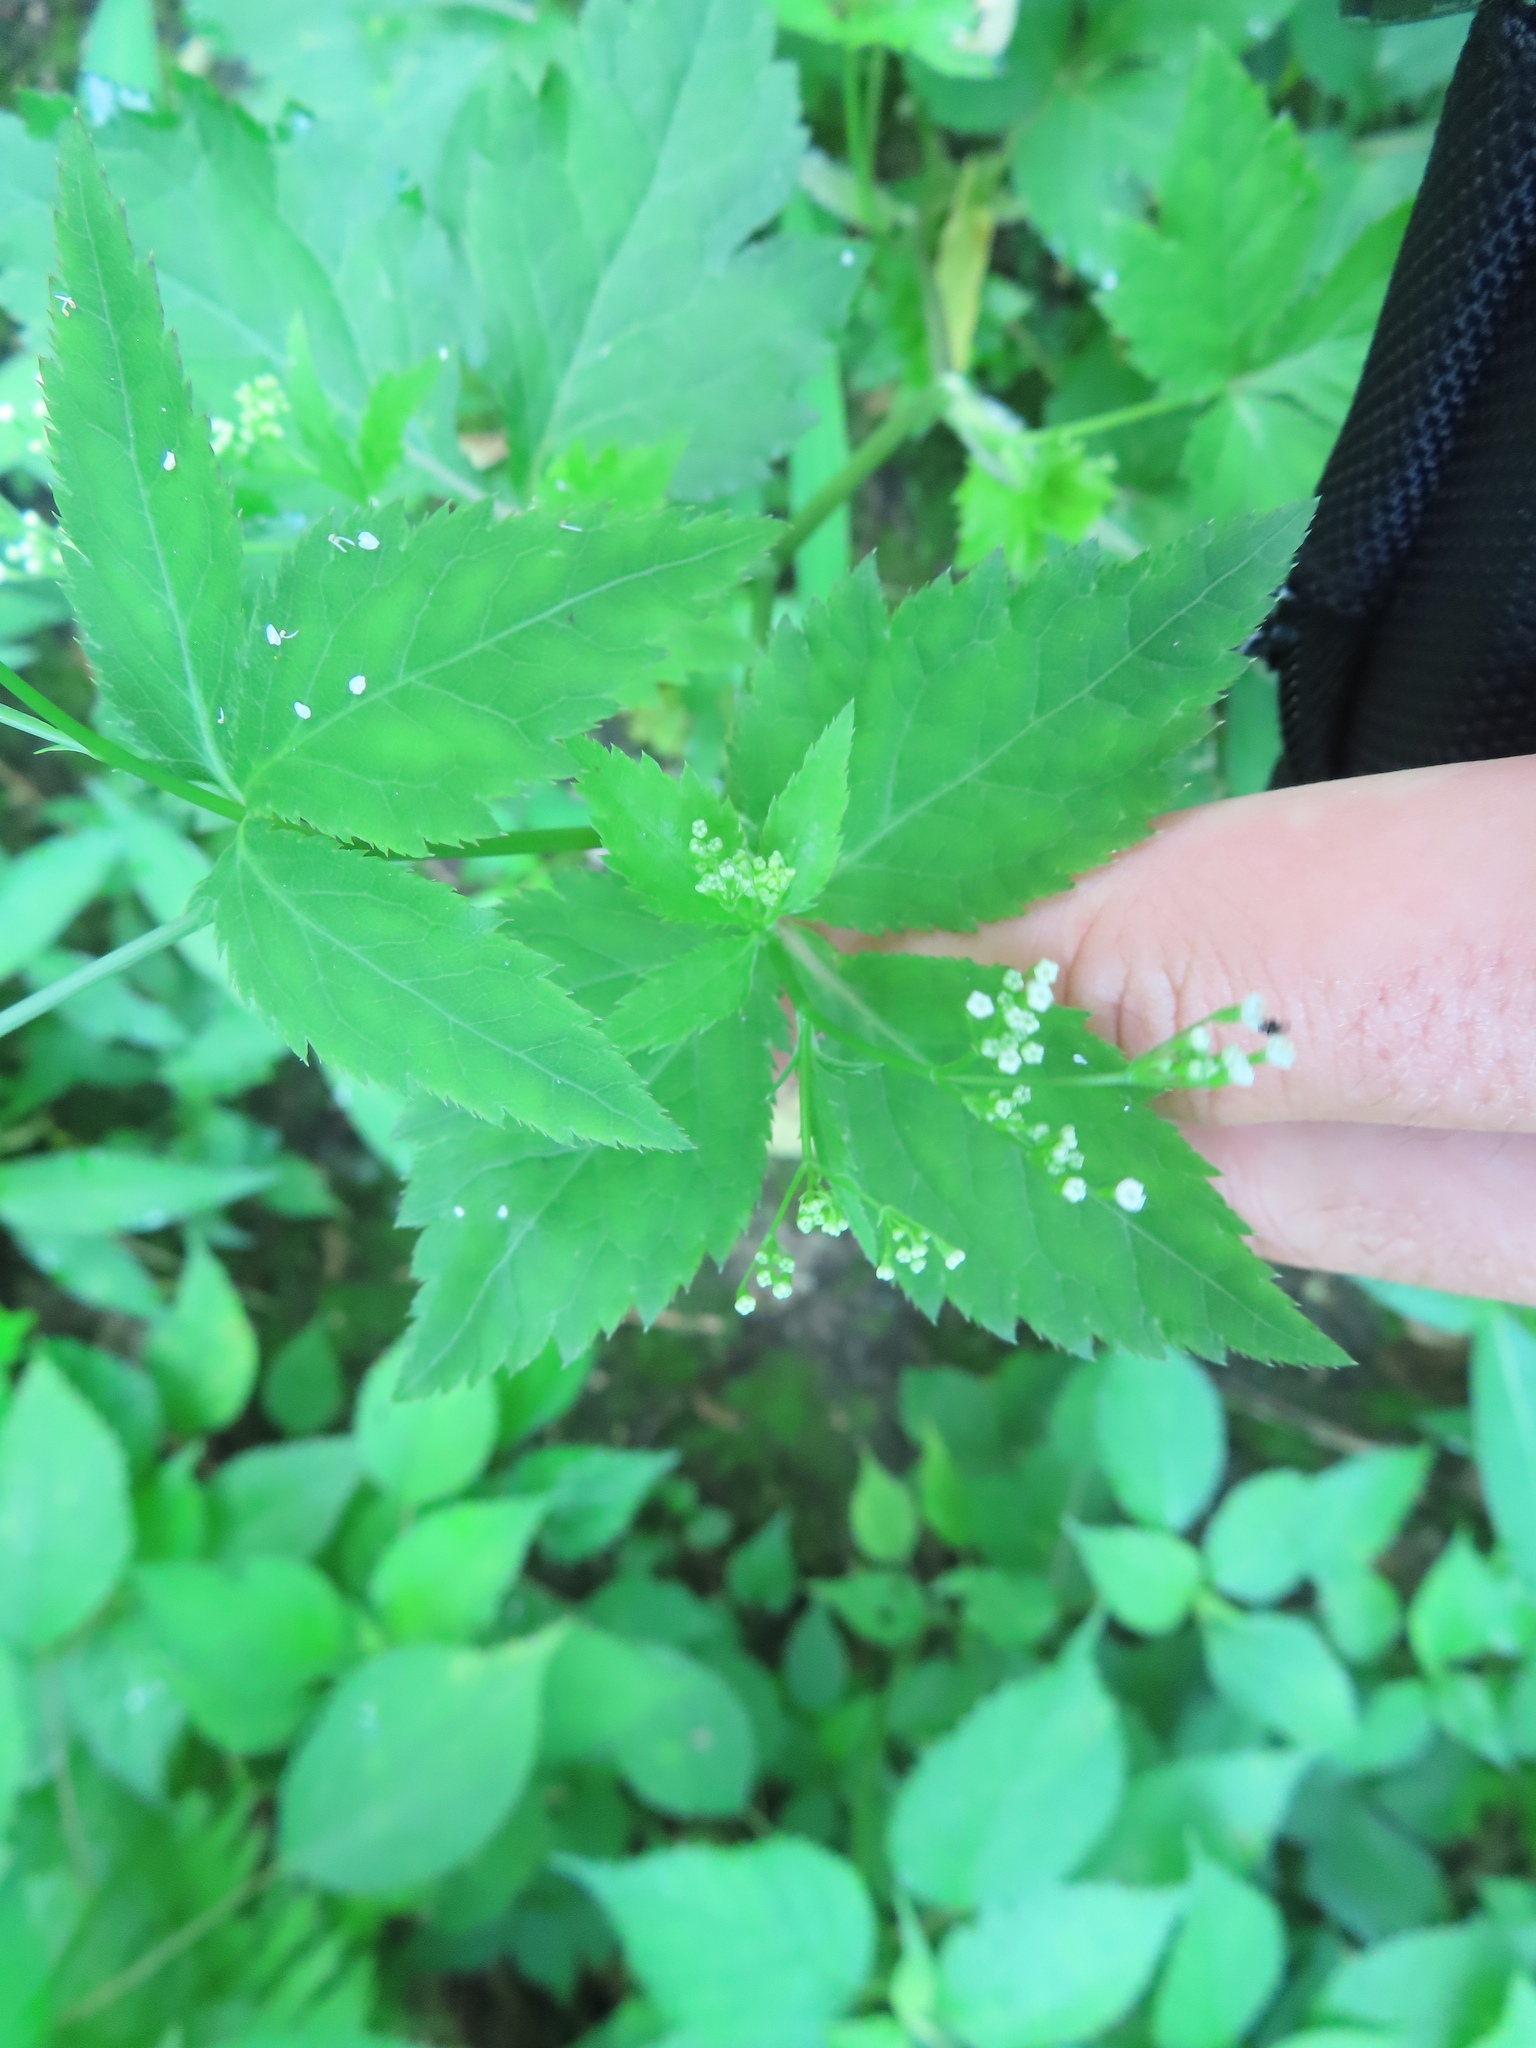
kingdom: Plantae
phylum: Tracheophyta
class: Magnoliopsida
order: Apiales
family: Apiaceae
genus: Cryptotaenia
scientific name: Cryptotaenia canadensis
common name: Honewort
